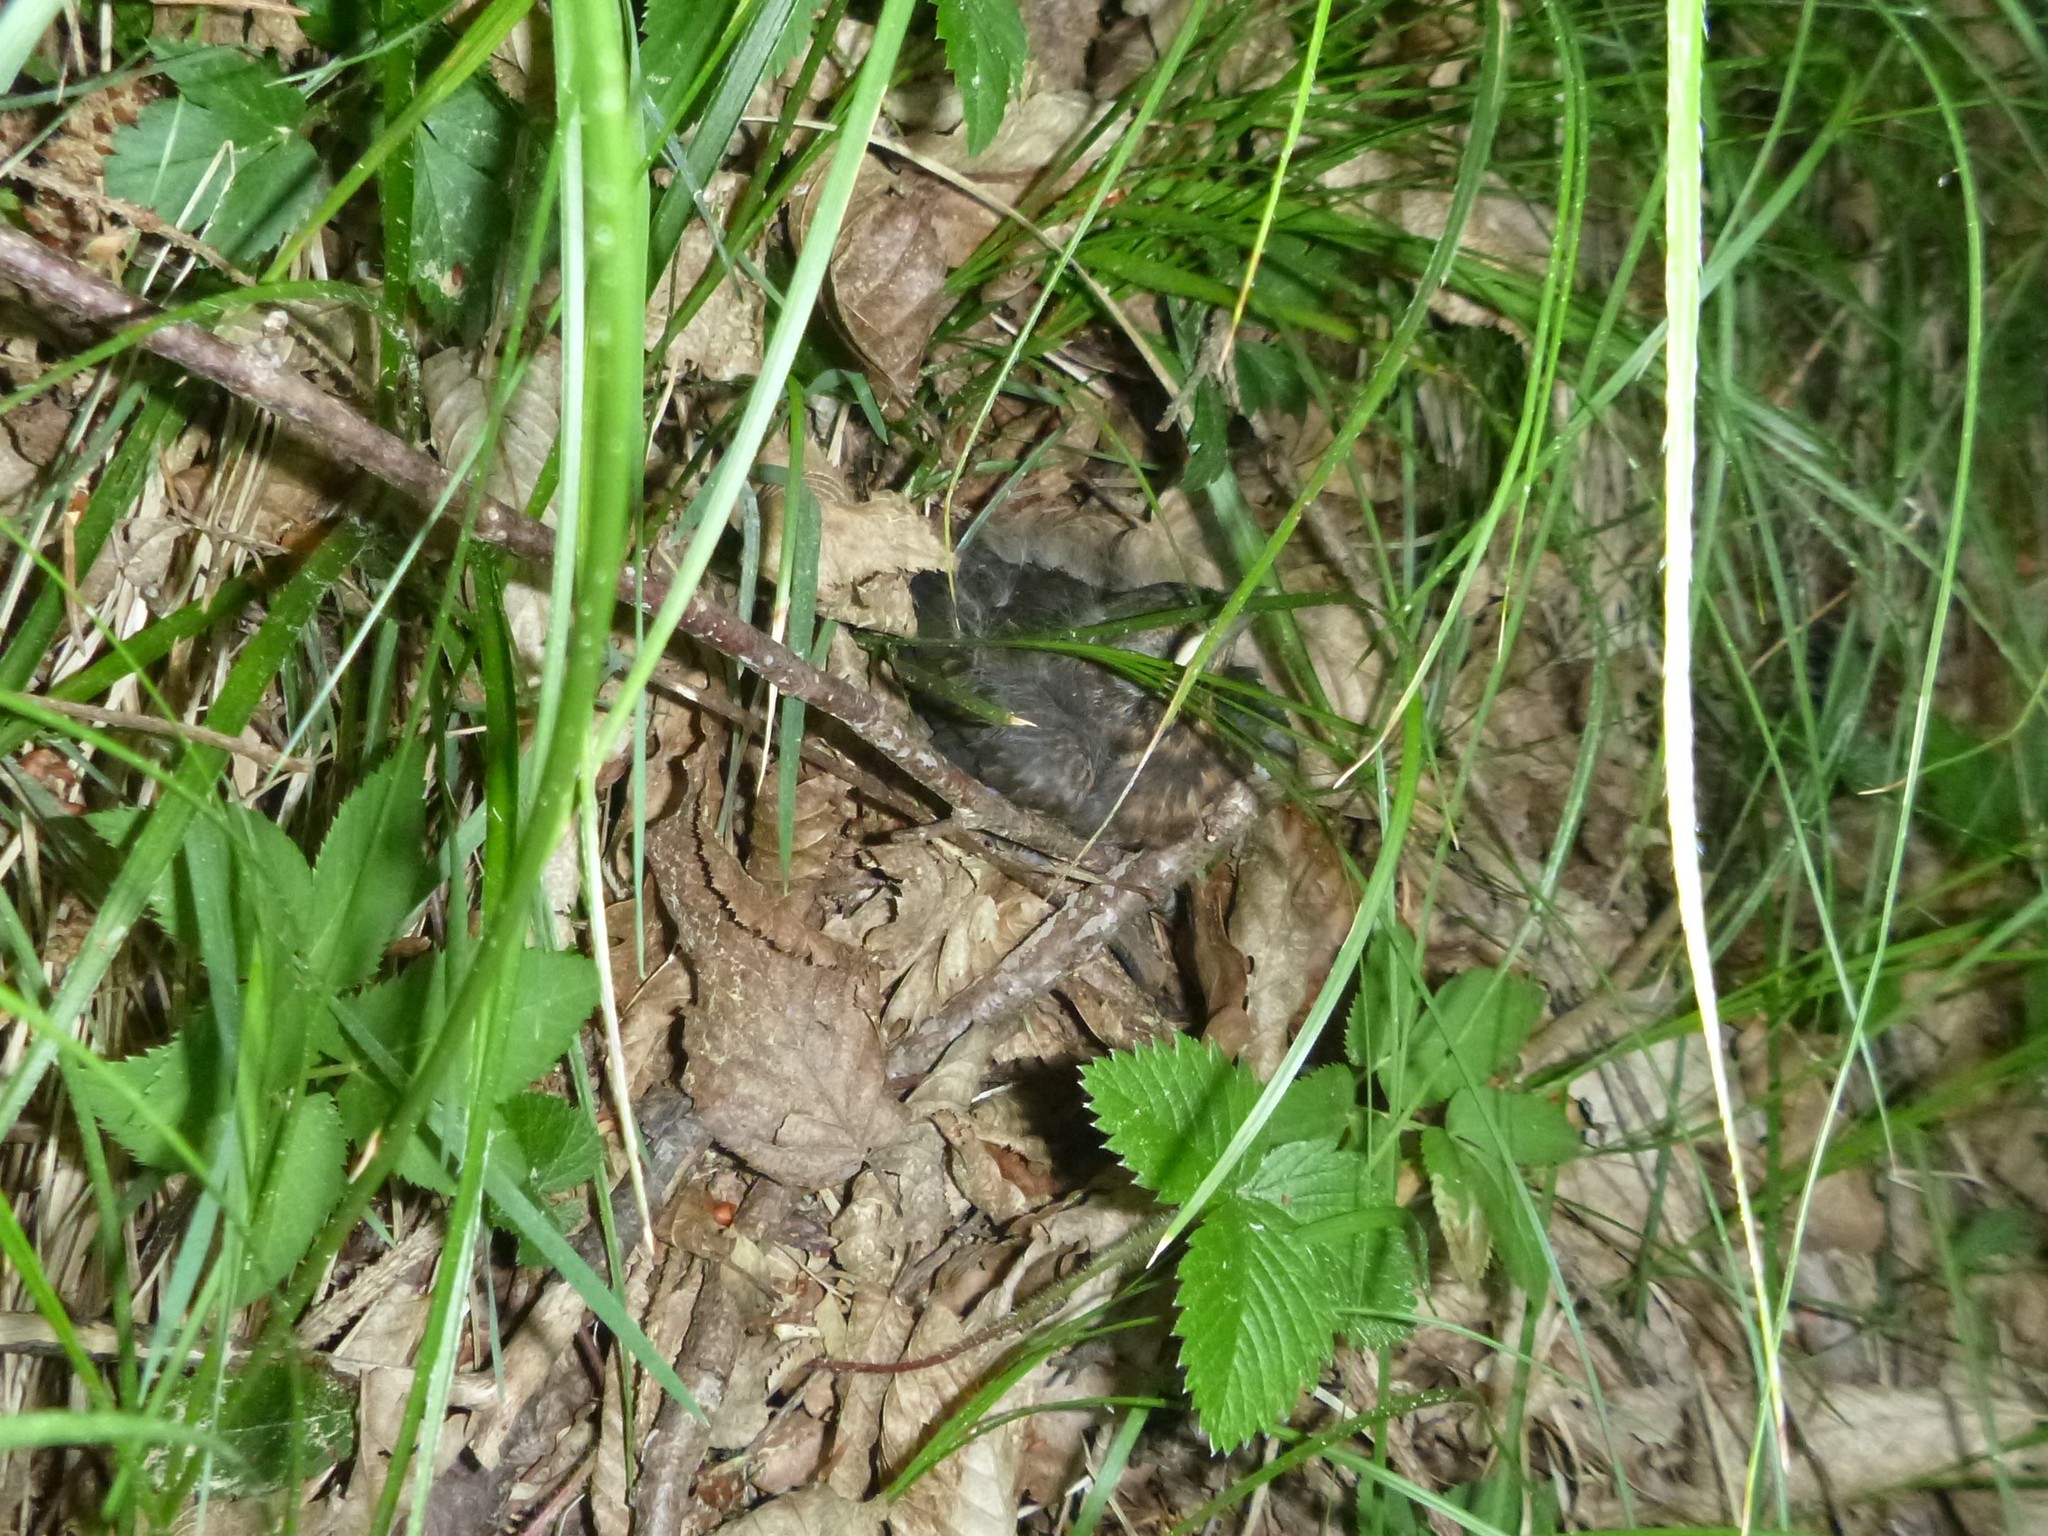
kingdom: Animalia
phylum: Chordata
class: Aves
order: Passeriformes
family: Turdidae
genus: Turdus
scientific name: Turdus merula
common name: Common blackbird
